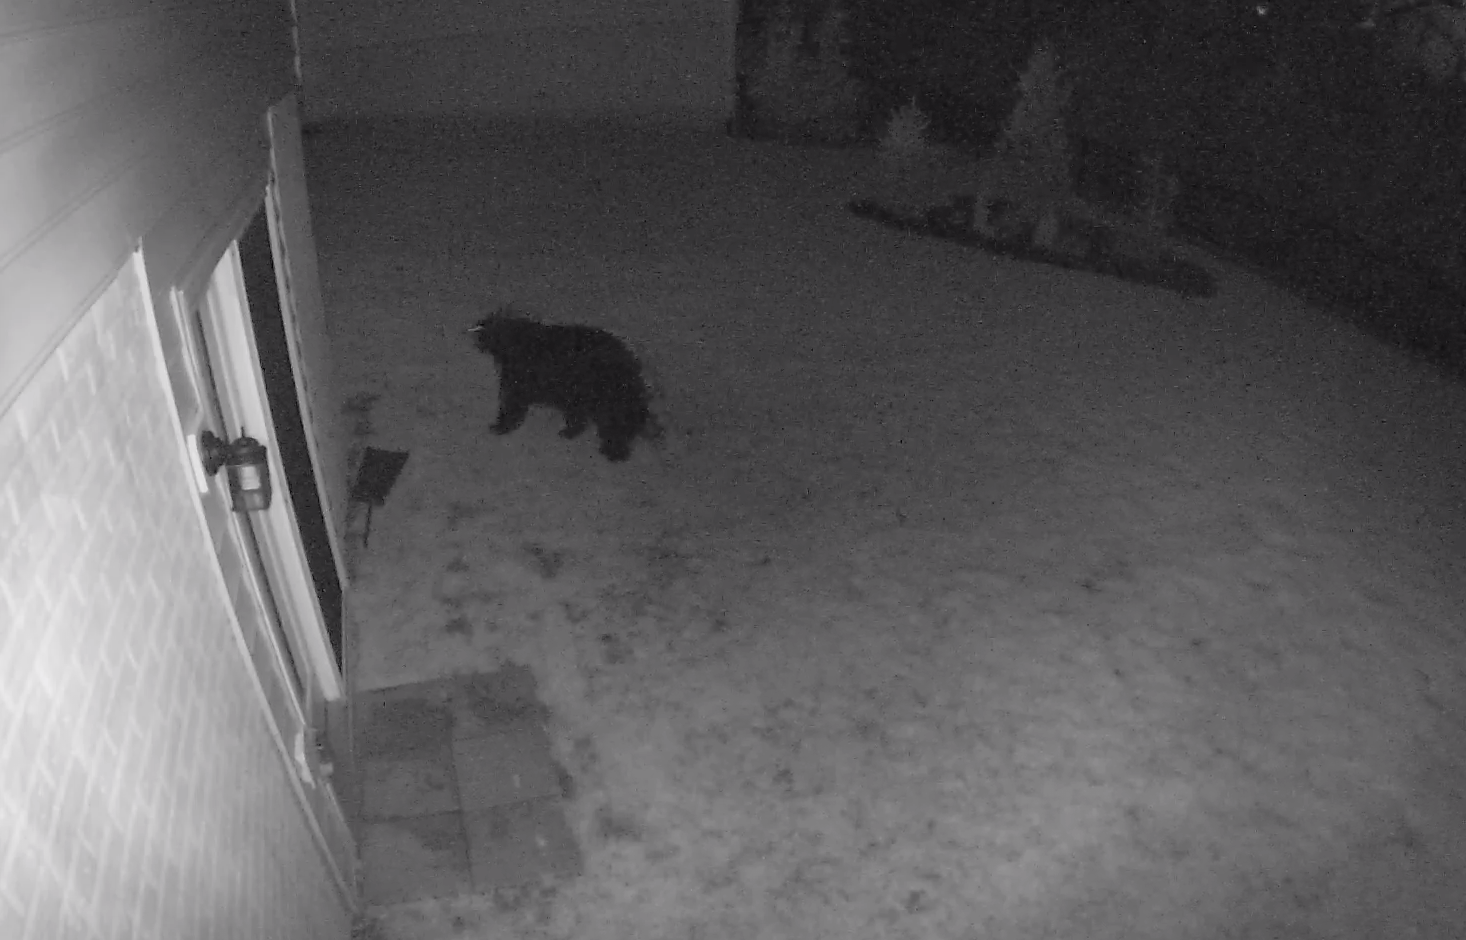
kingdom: Animalia
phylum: Chordata
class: Mammalia
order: Carnivora
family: Ursidae
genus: Ursus
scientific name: Ursus americanus
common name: American black bear
